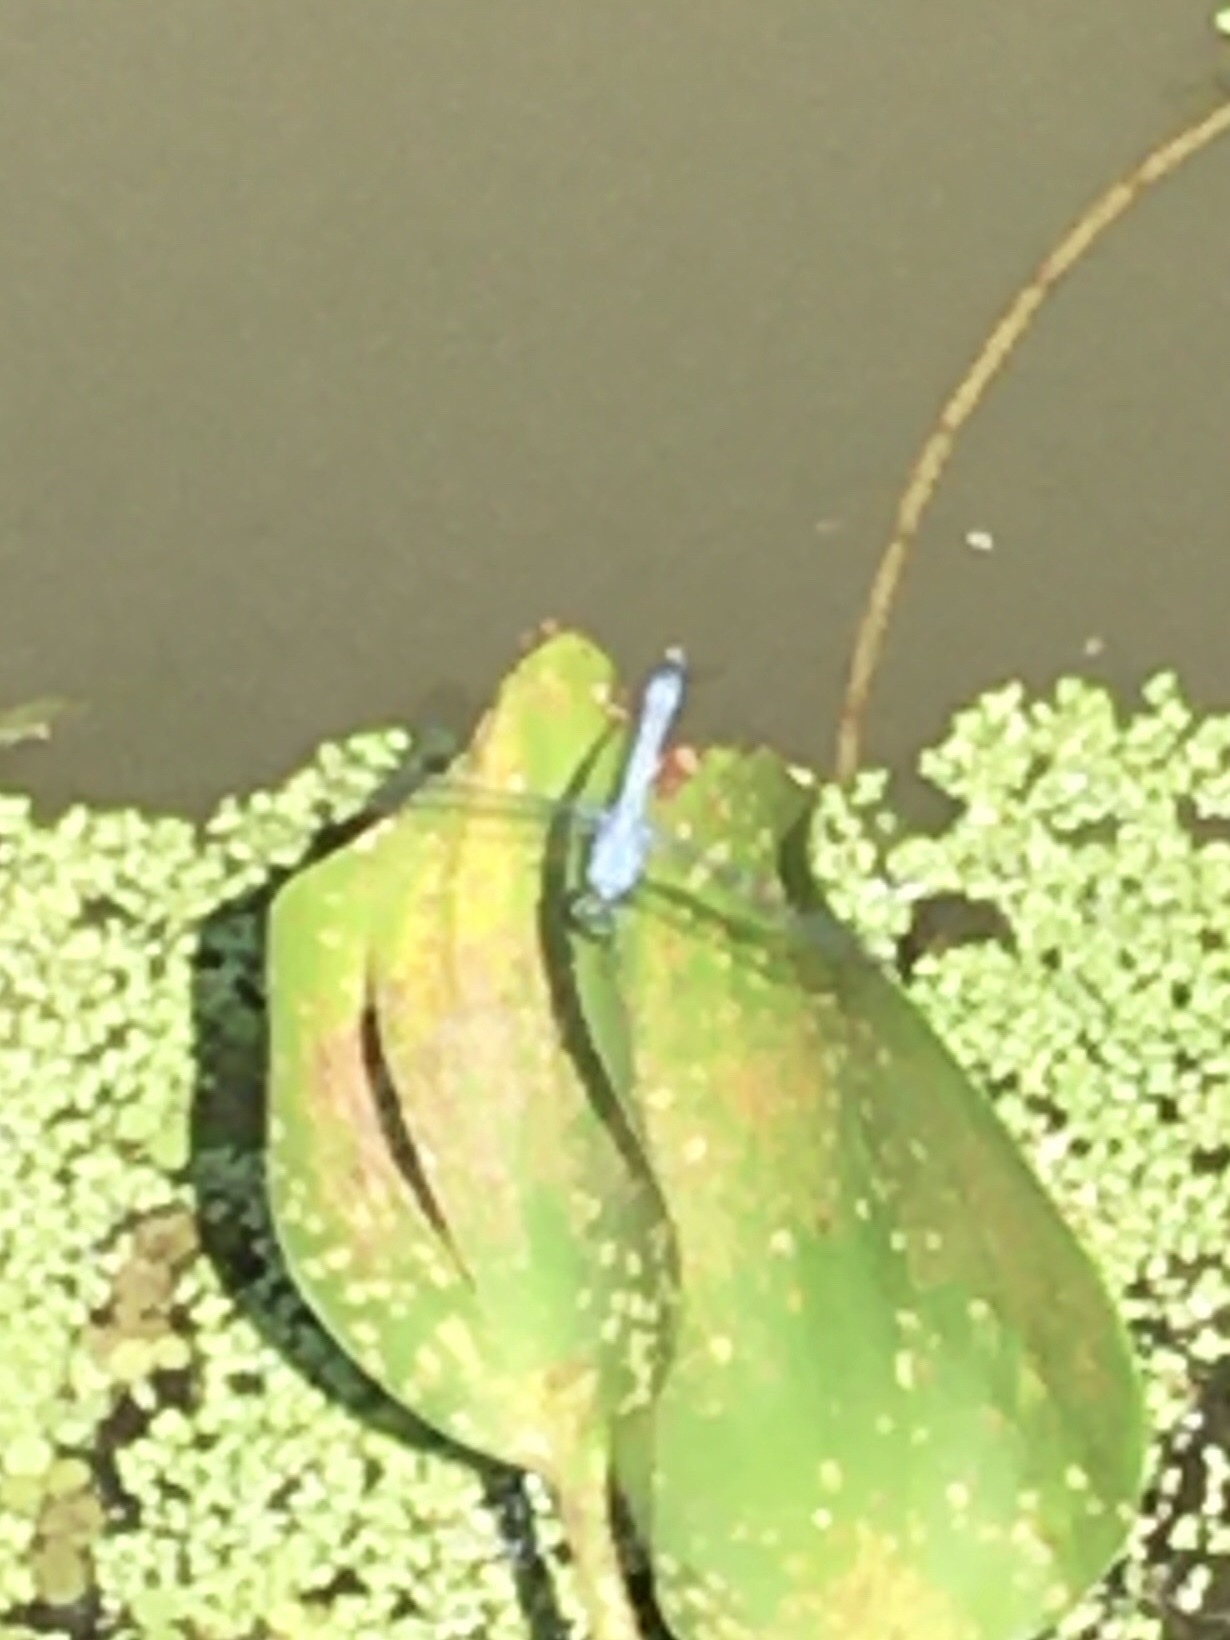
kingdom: Animalia
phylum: Arthropoda
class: Insecta
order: Odonata
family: Libellulidae
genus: Erythemis
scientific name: Erythemis simplicicollis
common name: Eastern pondhawk
